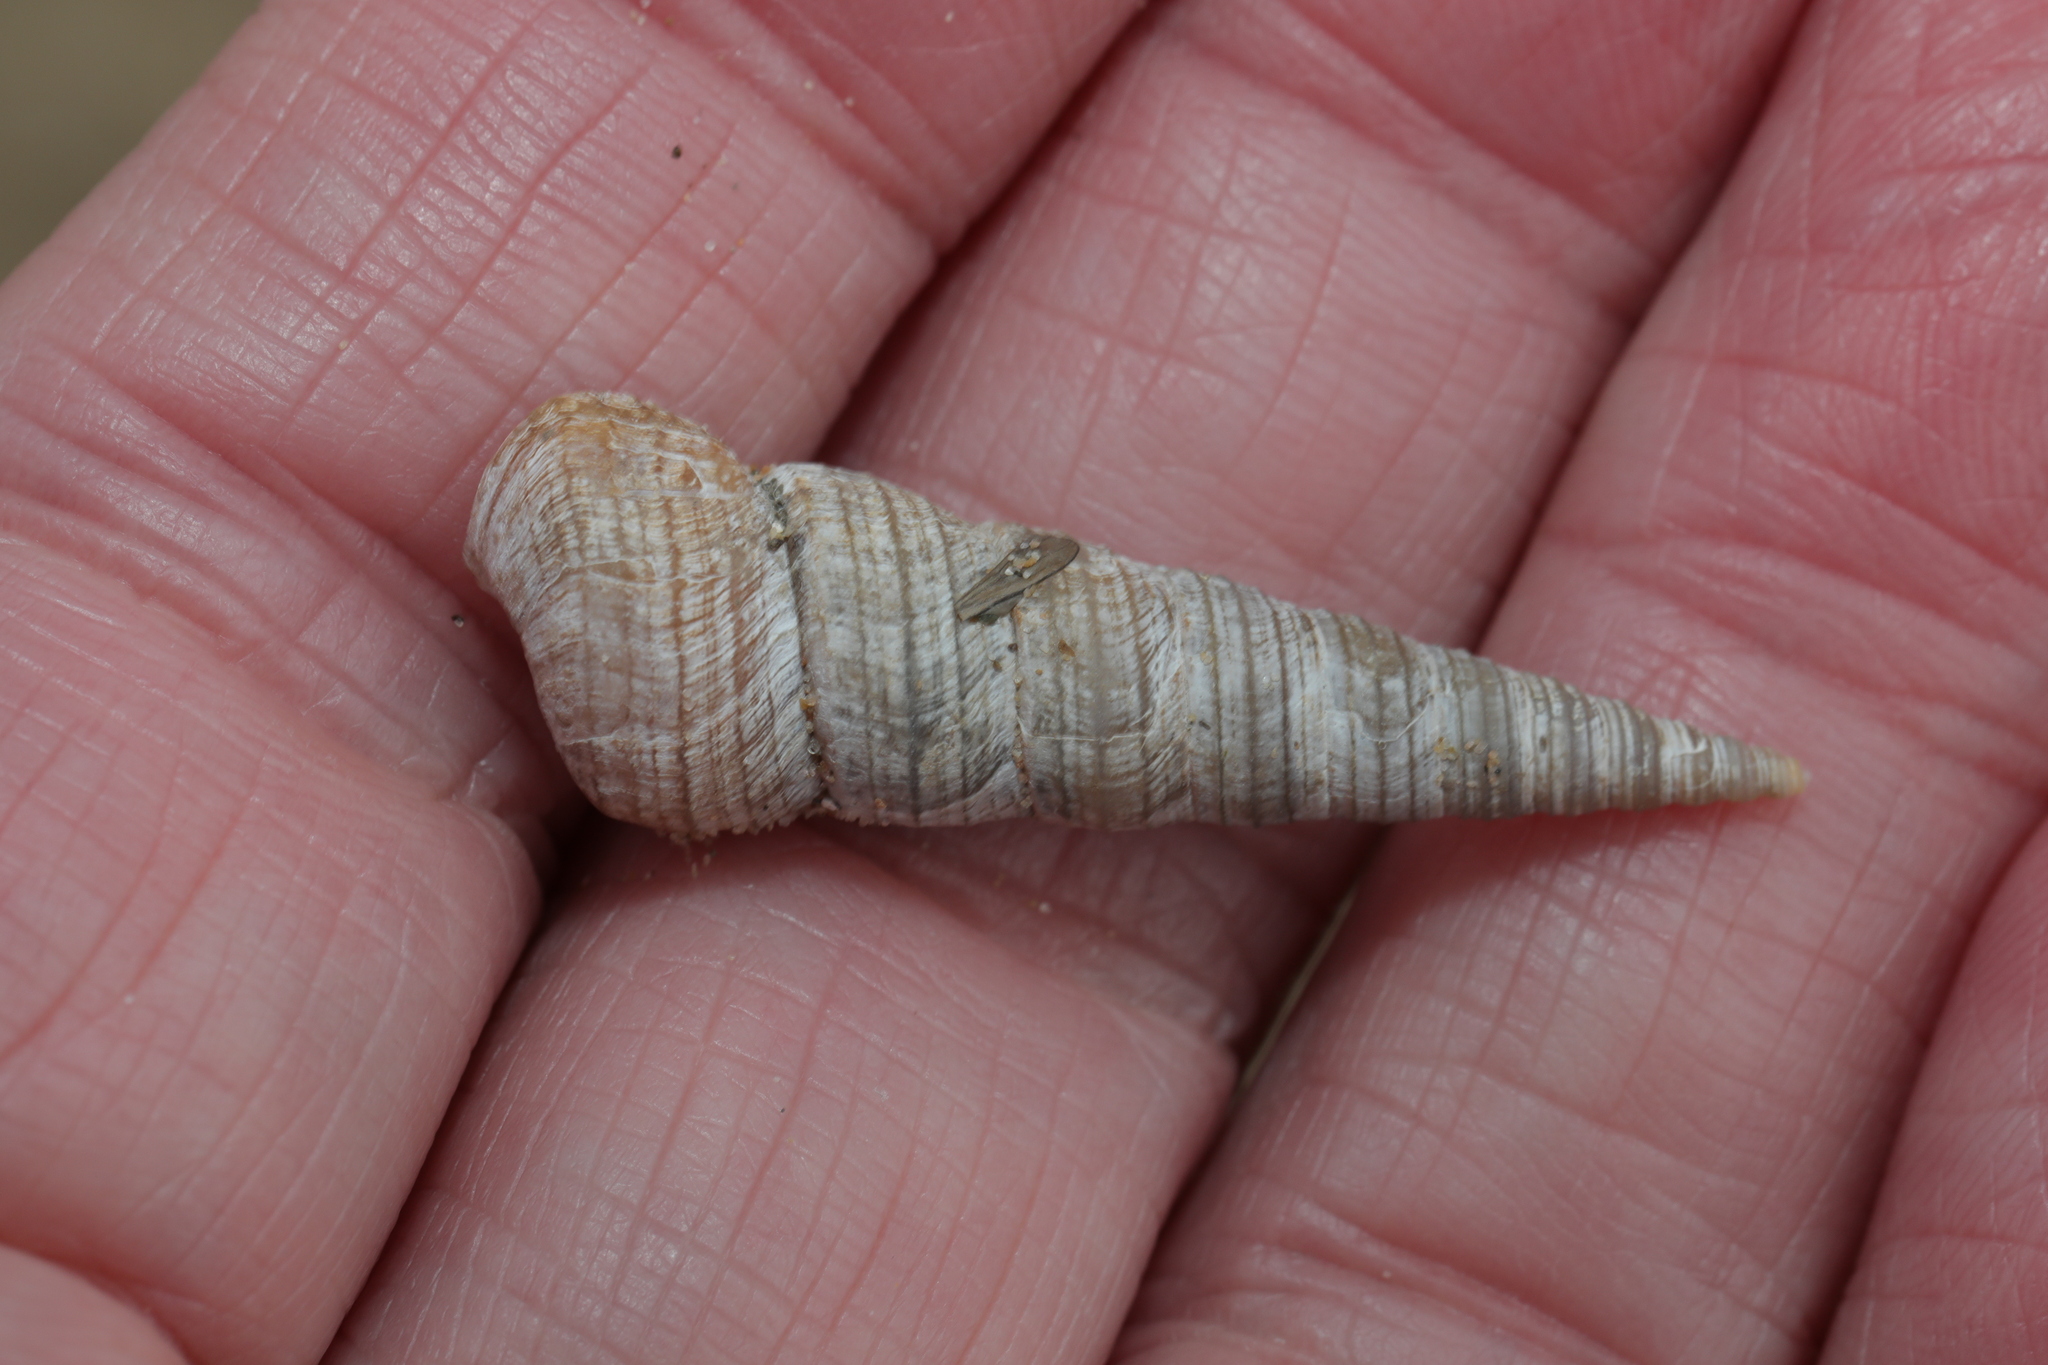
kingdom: Animalia
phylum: Mollusca
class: Gastropoda
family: Turritellidae
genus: Turritellinella
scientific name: Turritellinella tricarinata
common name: Auger shell
